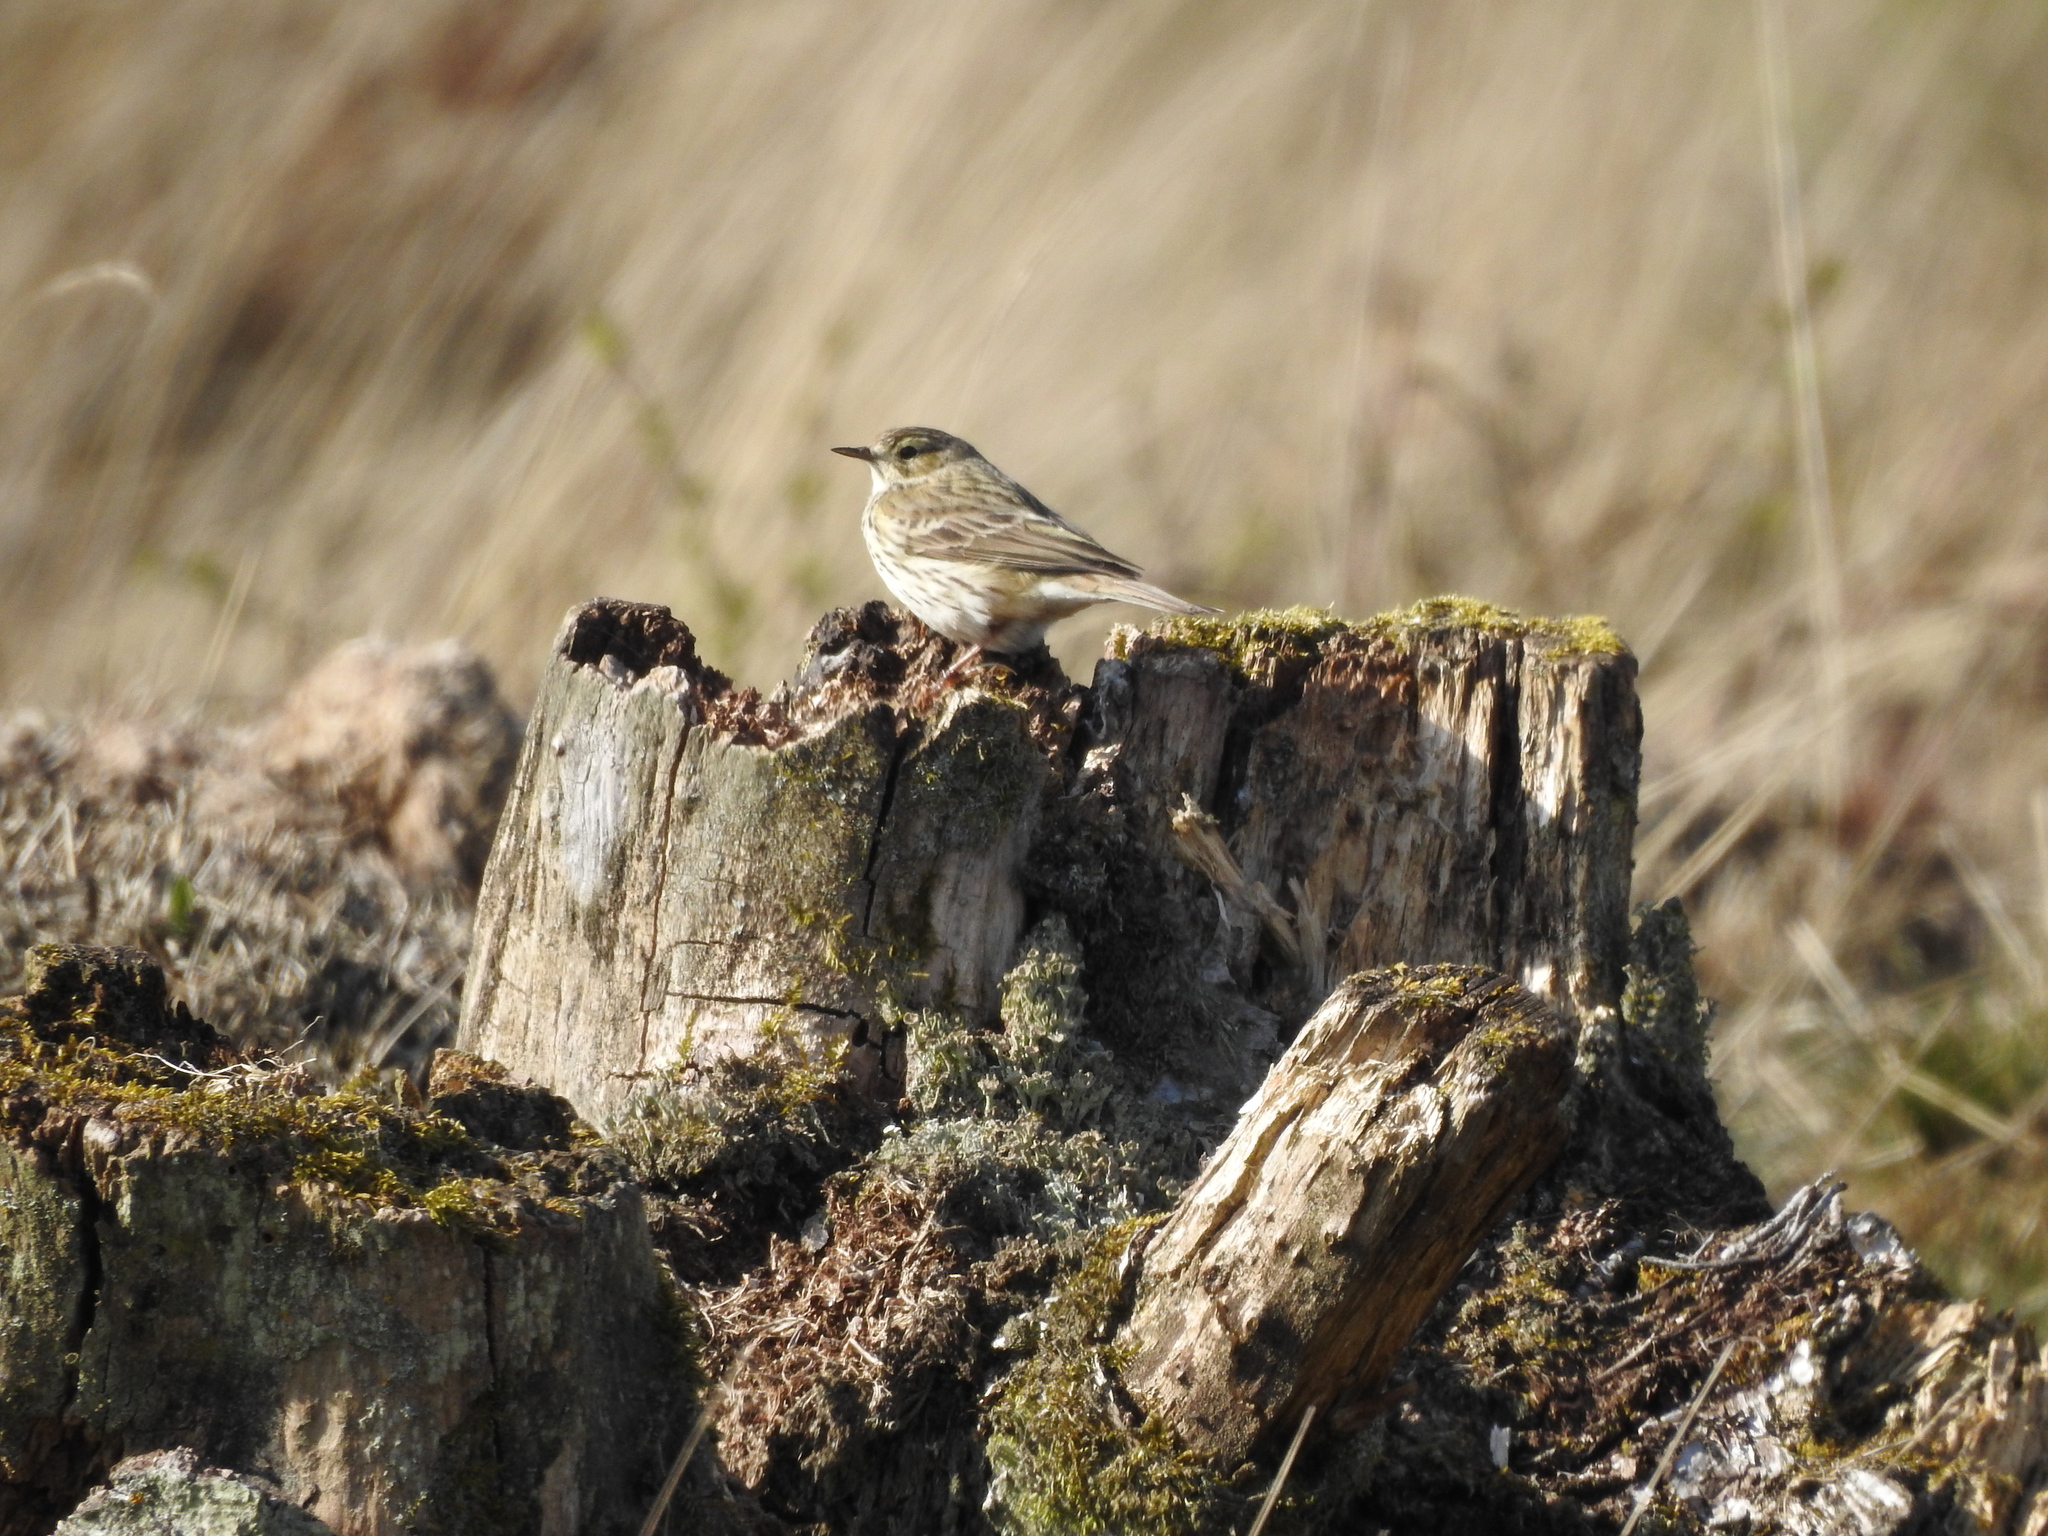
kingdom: Animalia
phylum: Chordata
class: Aves
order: Passeriformes
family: Motacillidae
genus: Anthus
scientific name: Anthus pratensis
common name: Meadow pipit
